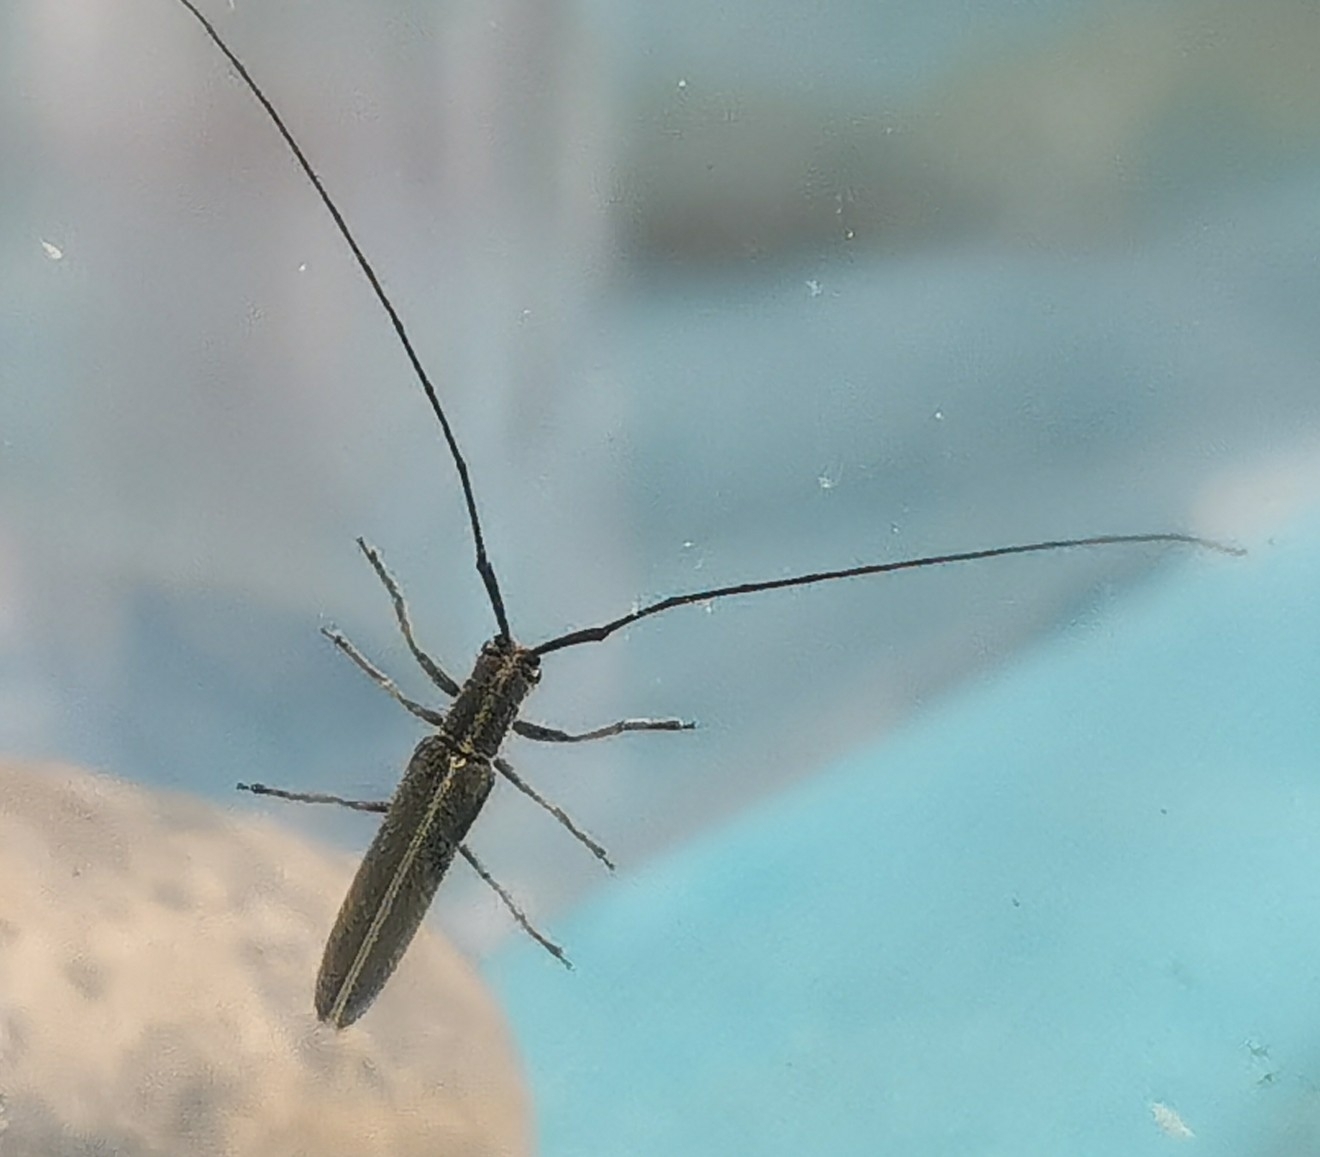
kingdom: Animalia
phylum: Arthropoda
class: Insecta
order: Coleoptera
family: Cerambycidae
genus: Calamobius
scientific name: Calamobius filum
